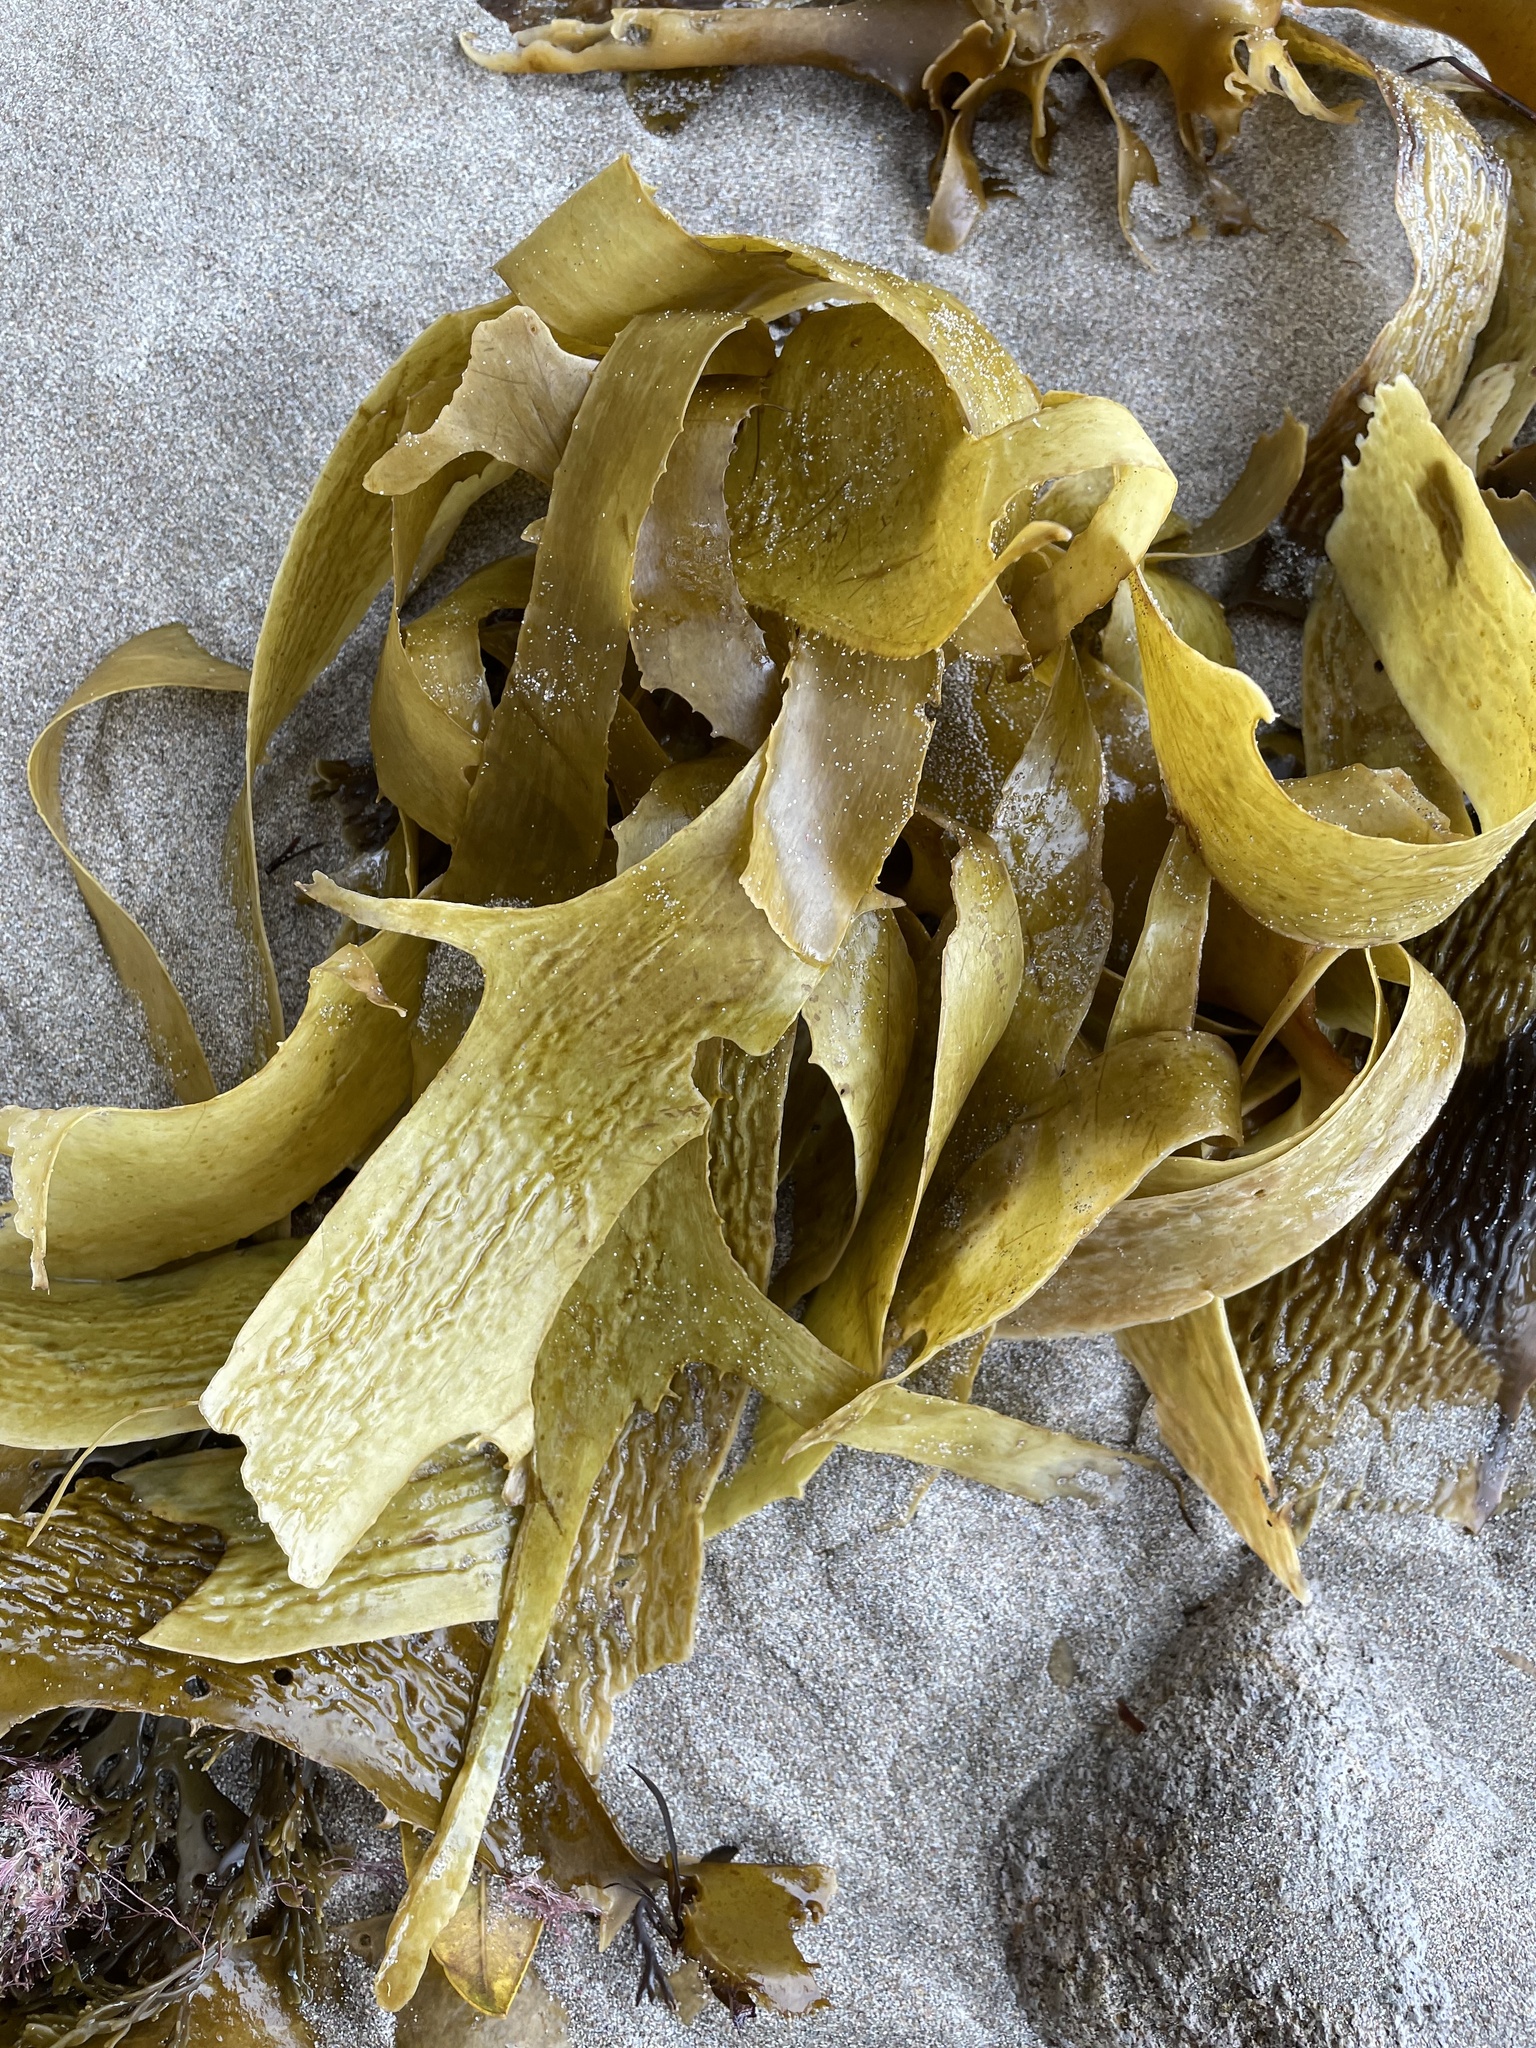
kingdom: Chromista
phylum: Ochrophyta
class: Phaeophyceae
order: Laminariales
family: Lessoniaceae
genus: Ecklonia
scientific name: Ecklonia radiata
